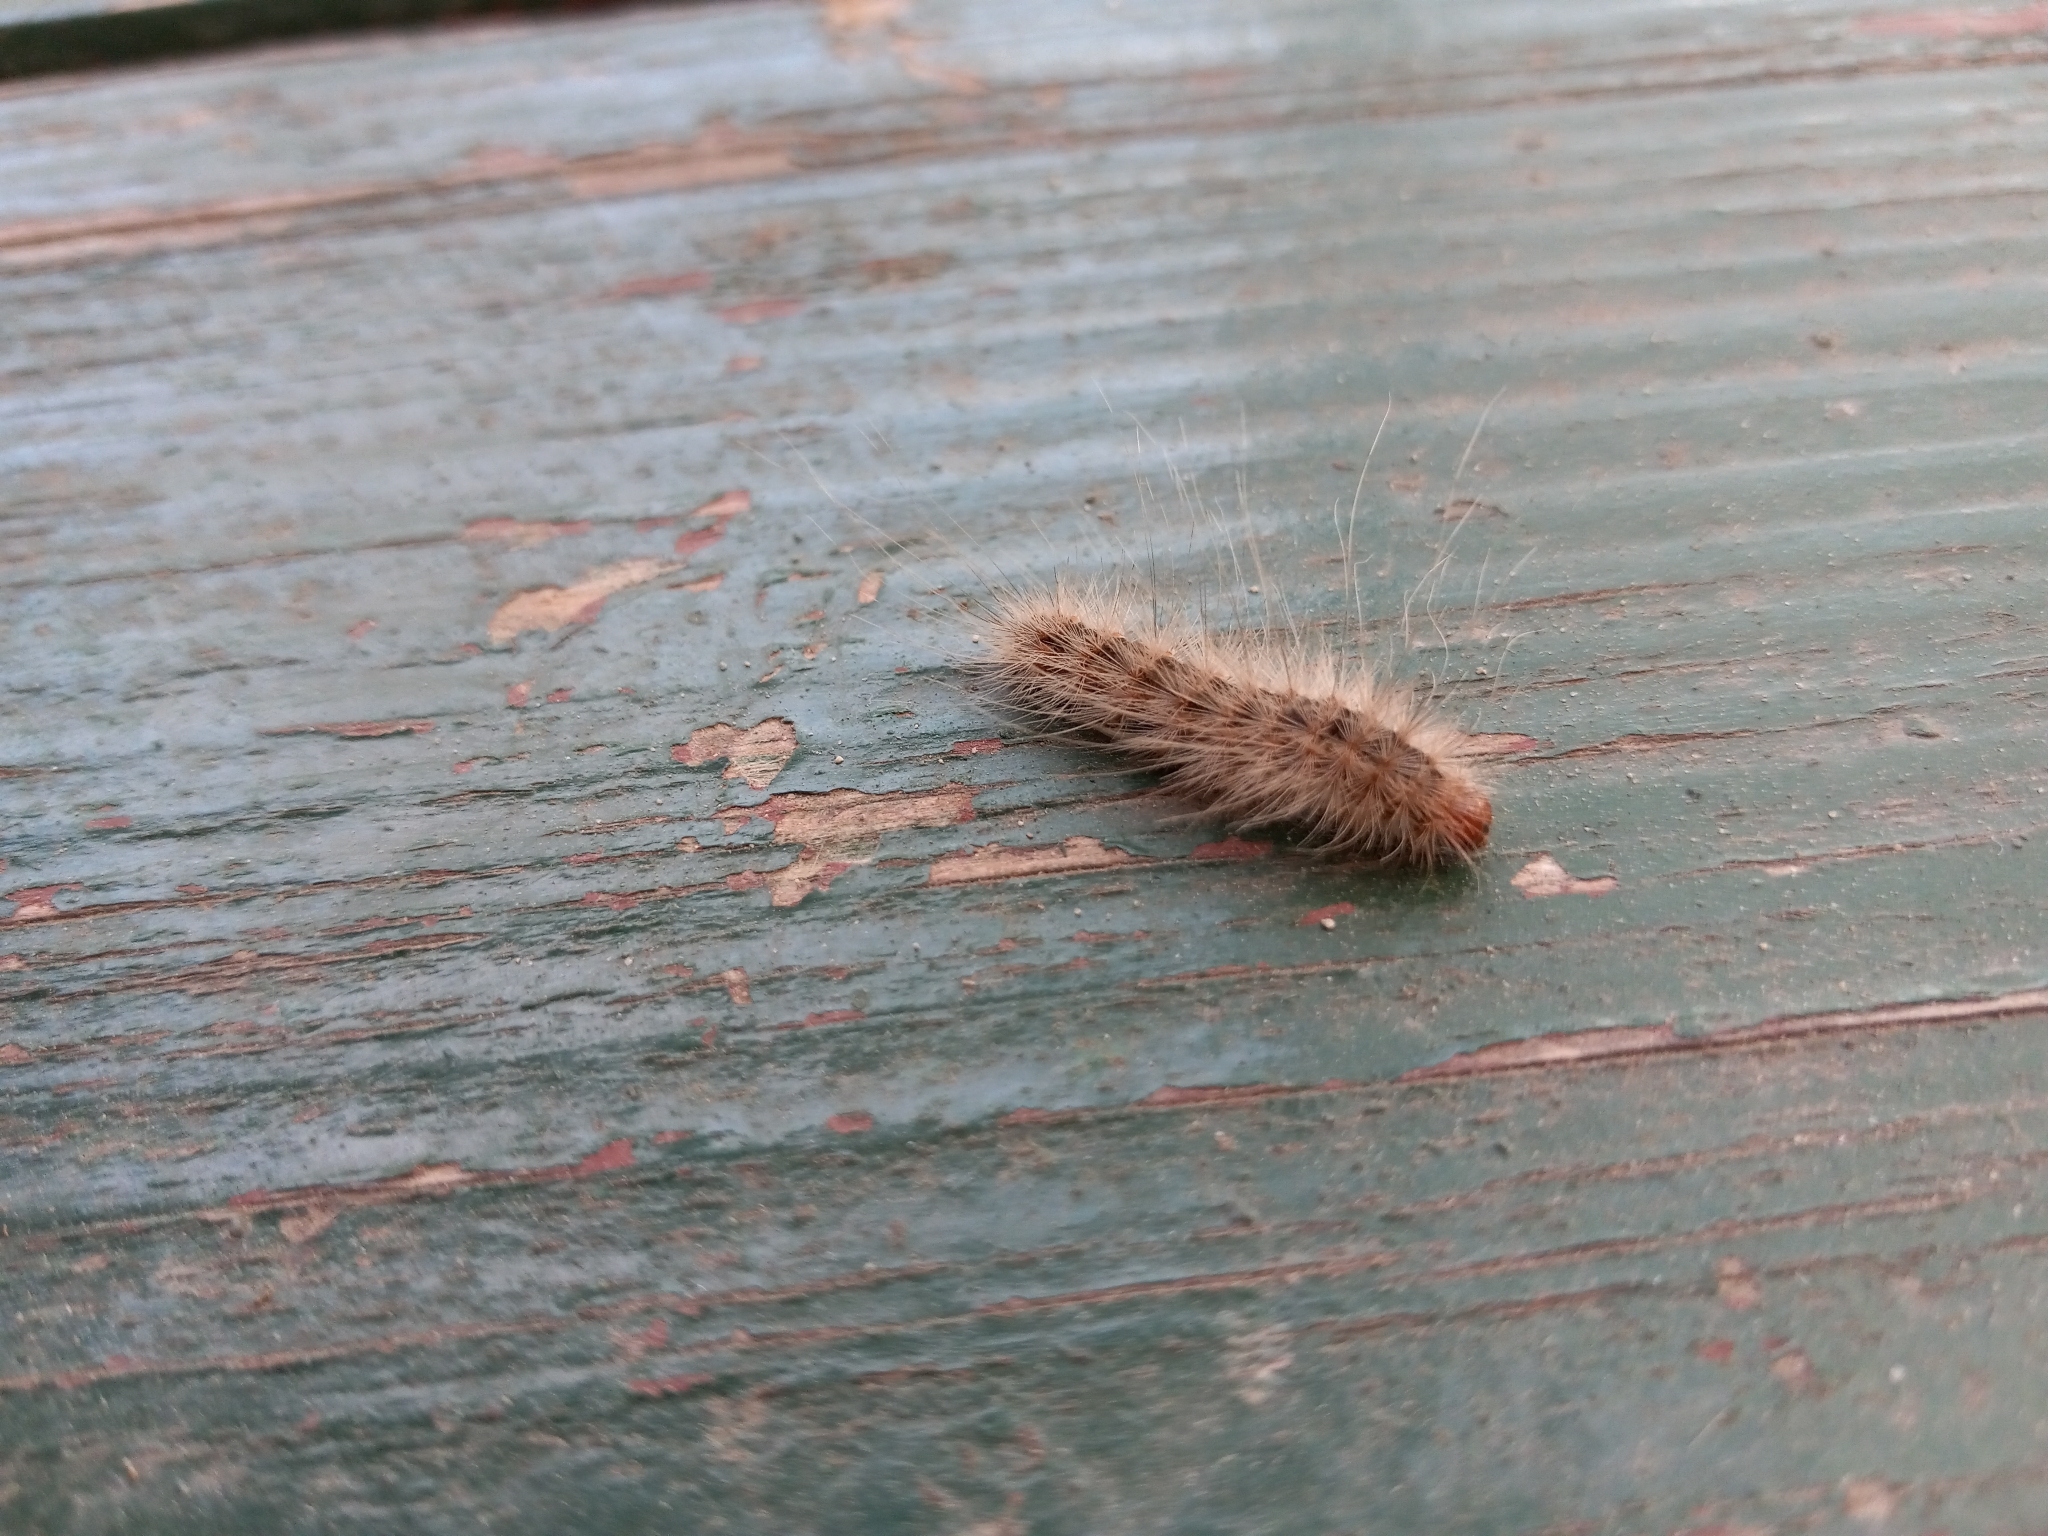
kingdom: Animalia
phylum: Arthropoda
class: Insecta
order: Lepidoptera
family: Erebidae
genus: Hyphantria
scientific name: Hyphantria cunea
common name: American white moth
